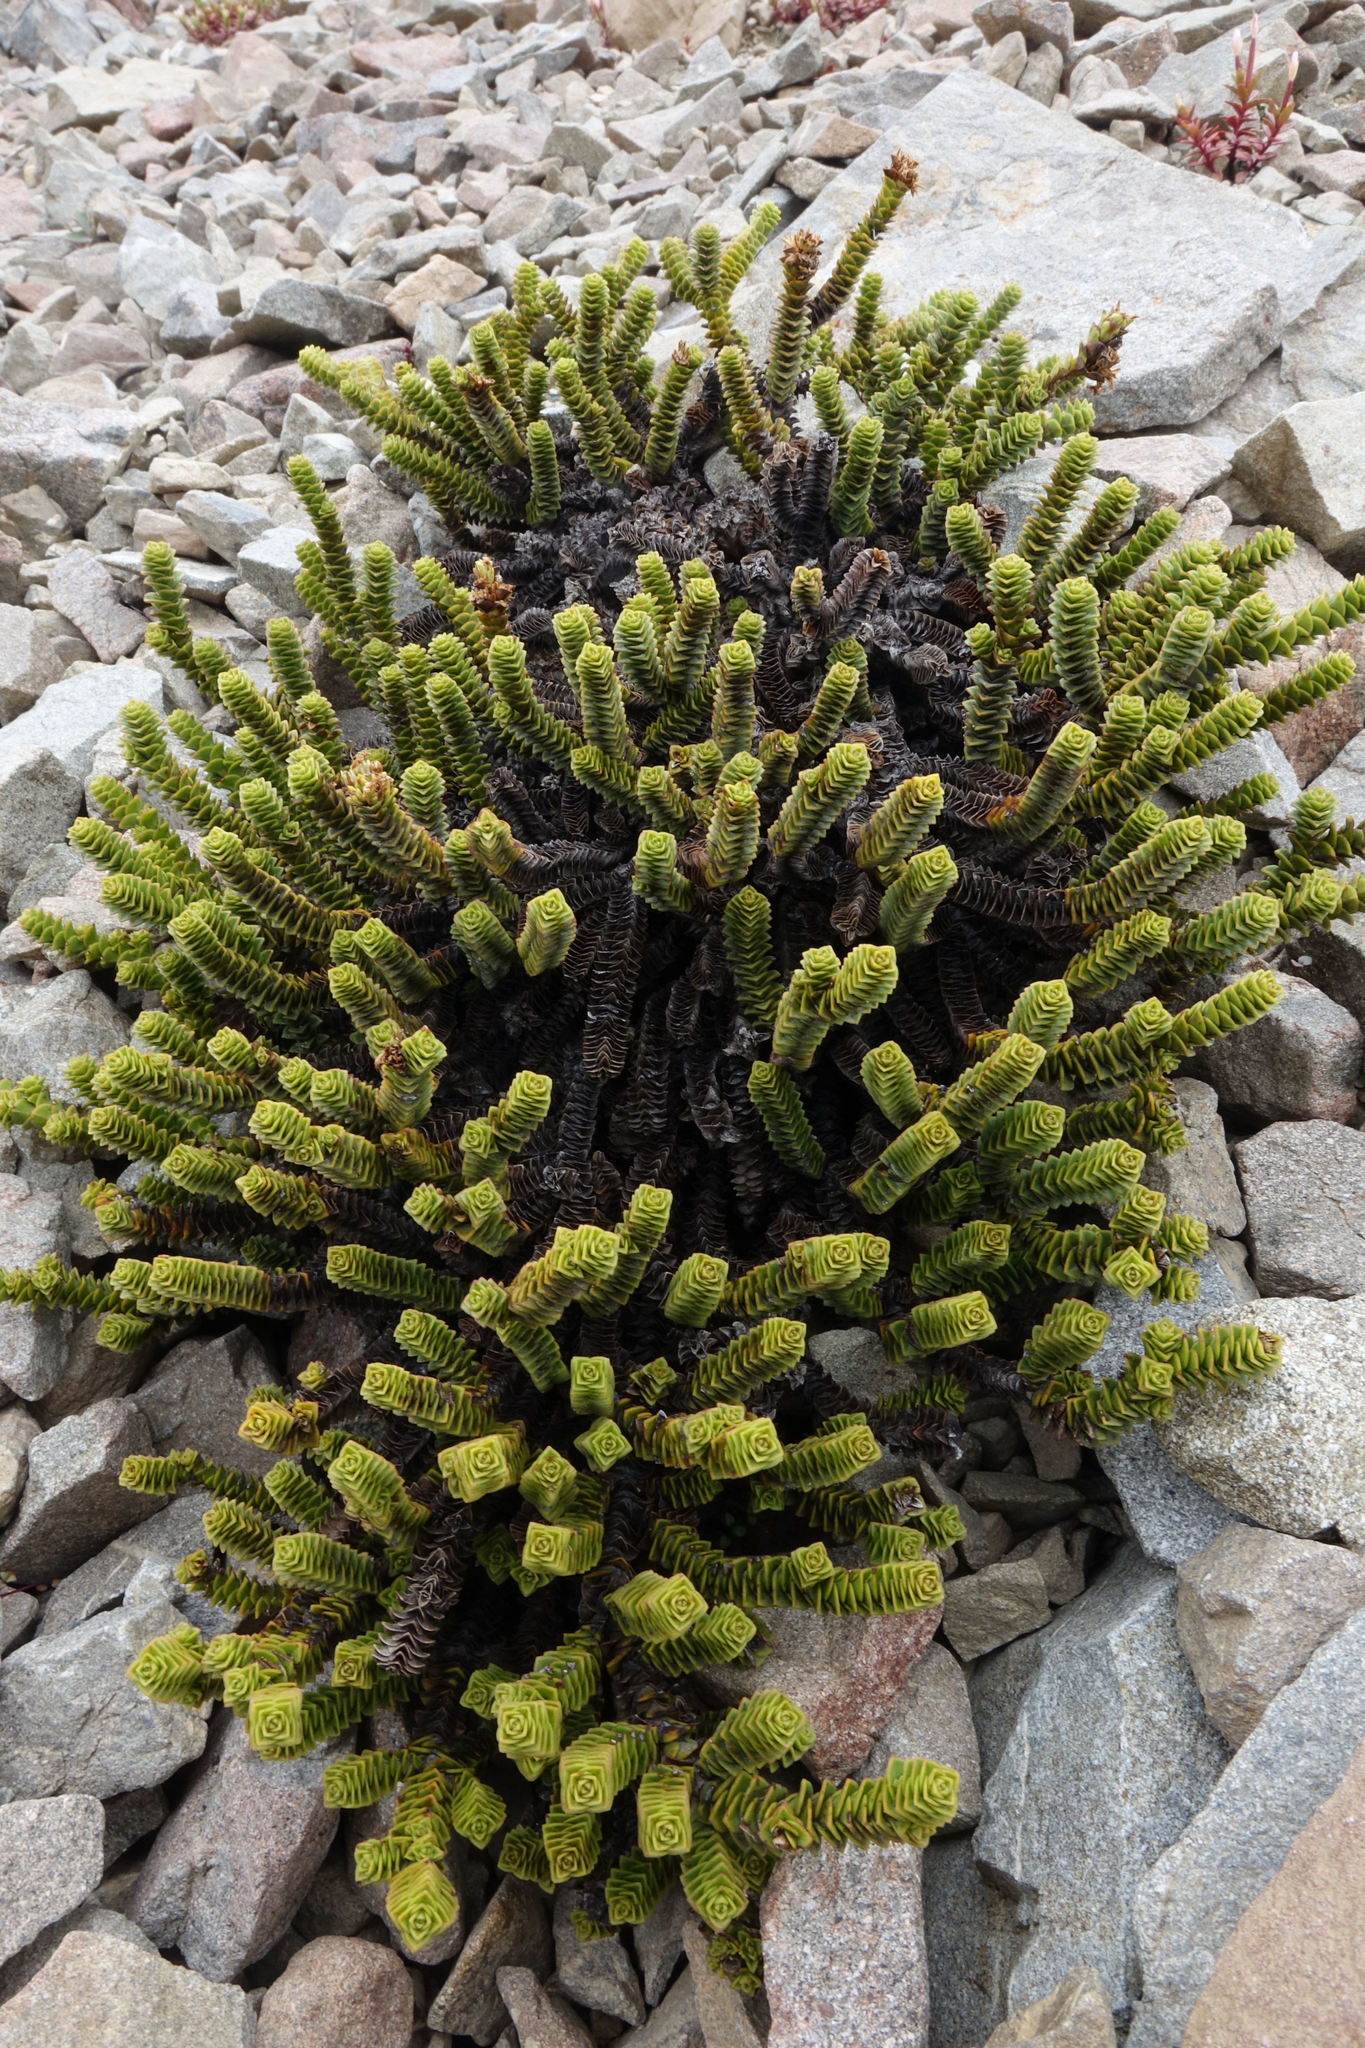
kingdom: Plantae
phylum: Tracheophyta
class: Magnoliopsida
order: Lamiales
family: Plantaginaceae
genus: Veronica
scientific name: Veronica epacridea
